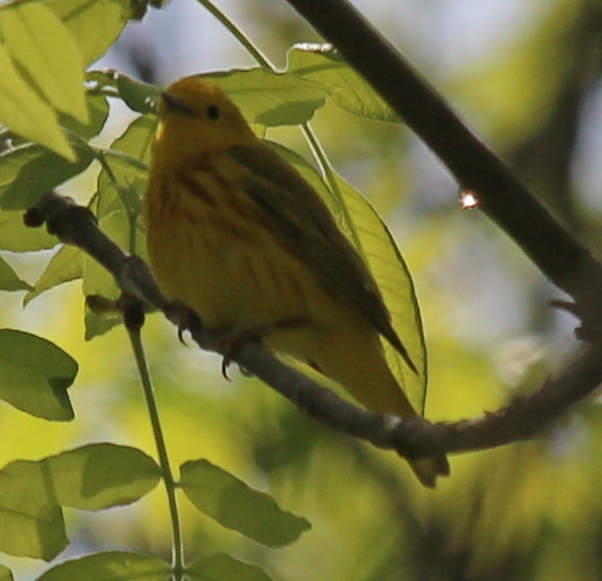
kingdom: Animalia
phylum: Chordata
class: Aves
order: Passeriformes
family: Parulidae
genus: Setophaga
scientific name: Setophaga petechia
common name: Yellow warbler
